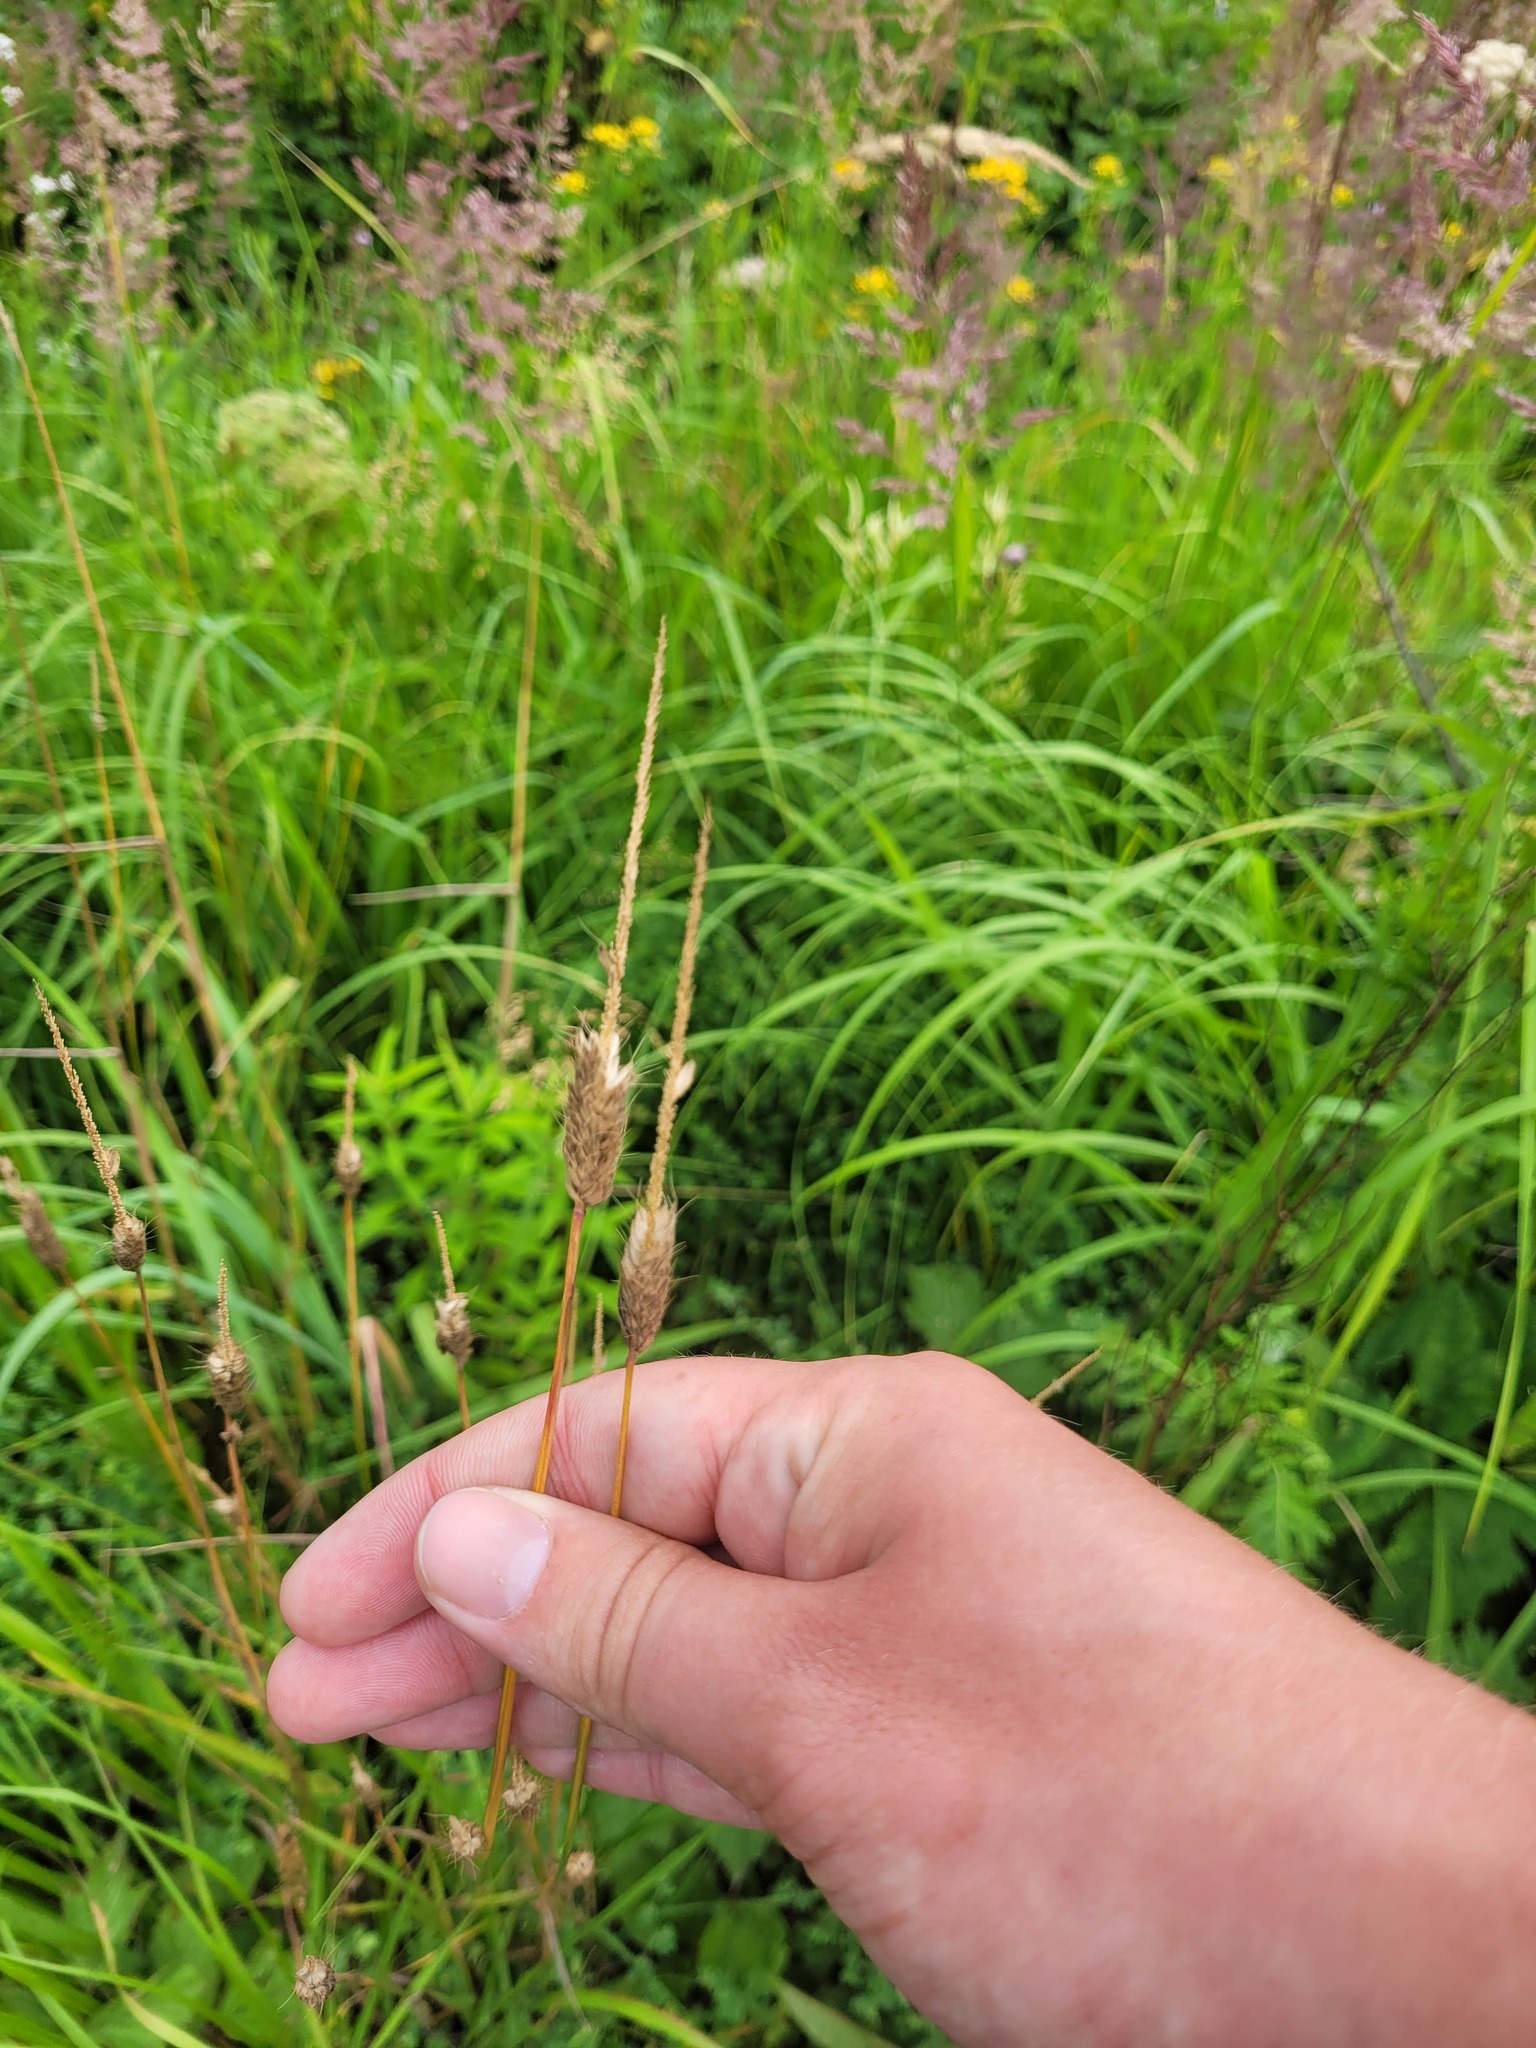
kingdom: Plantae
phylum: Tracheophyta
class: Liliopsida
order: Poales
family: Poaceae
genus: Alopecurus
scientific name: Alopecurus pratensis
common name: Meadow foxtail
